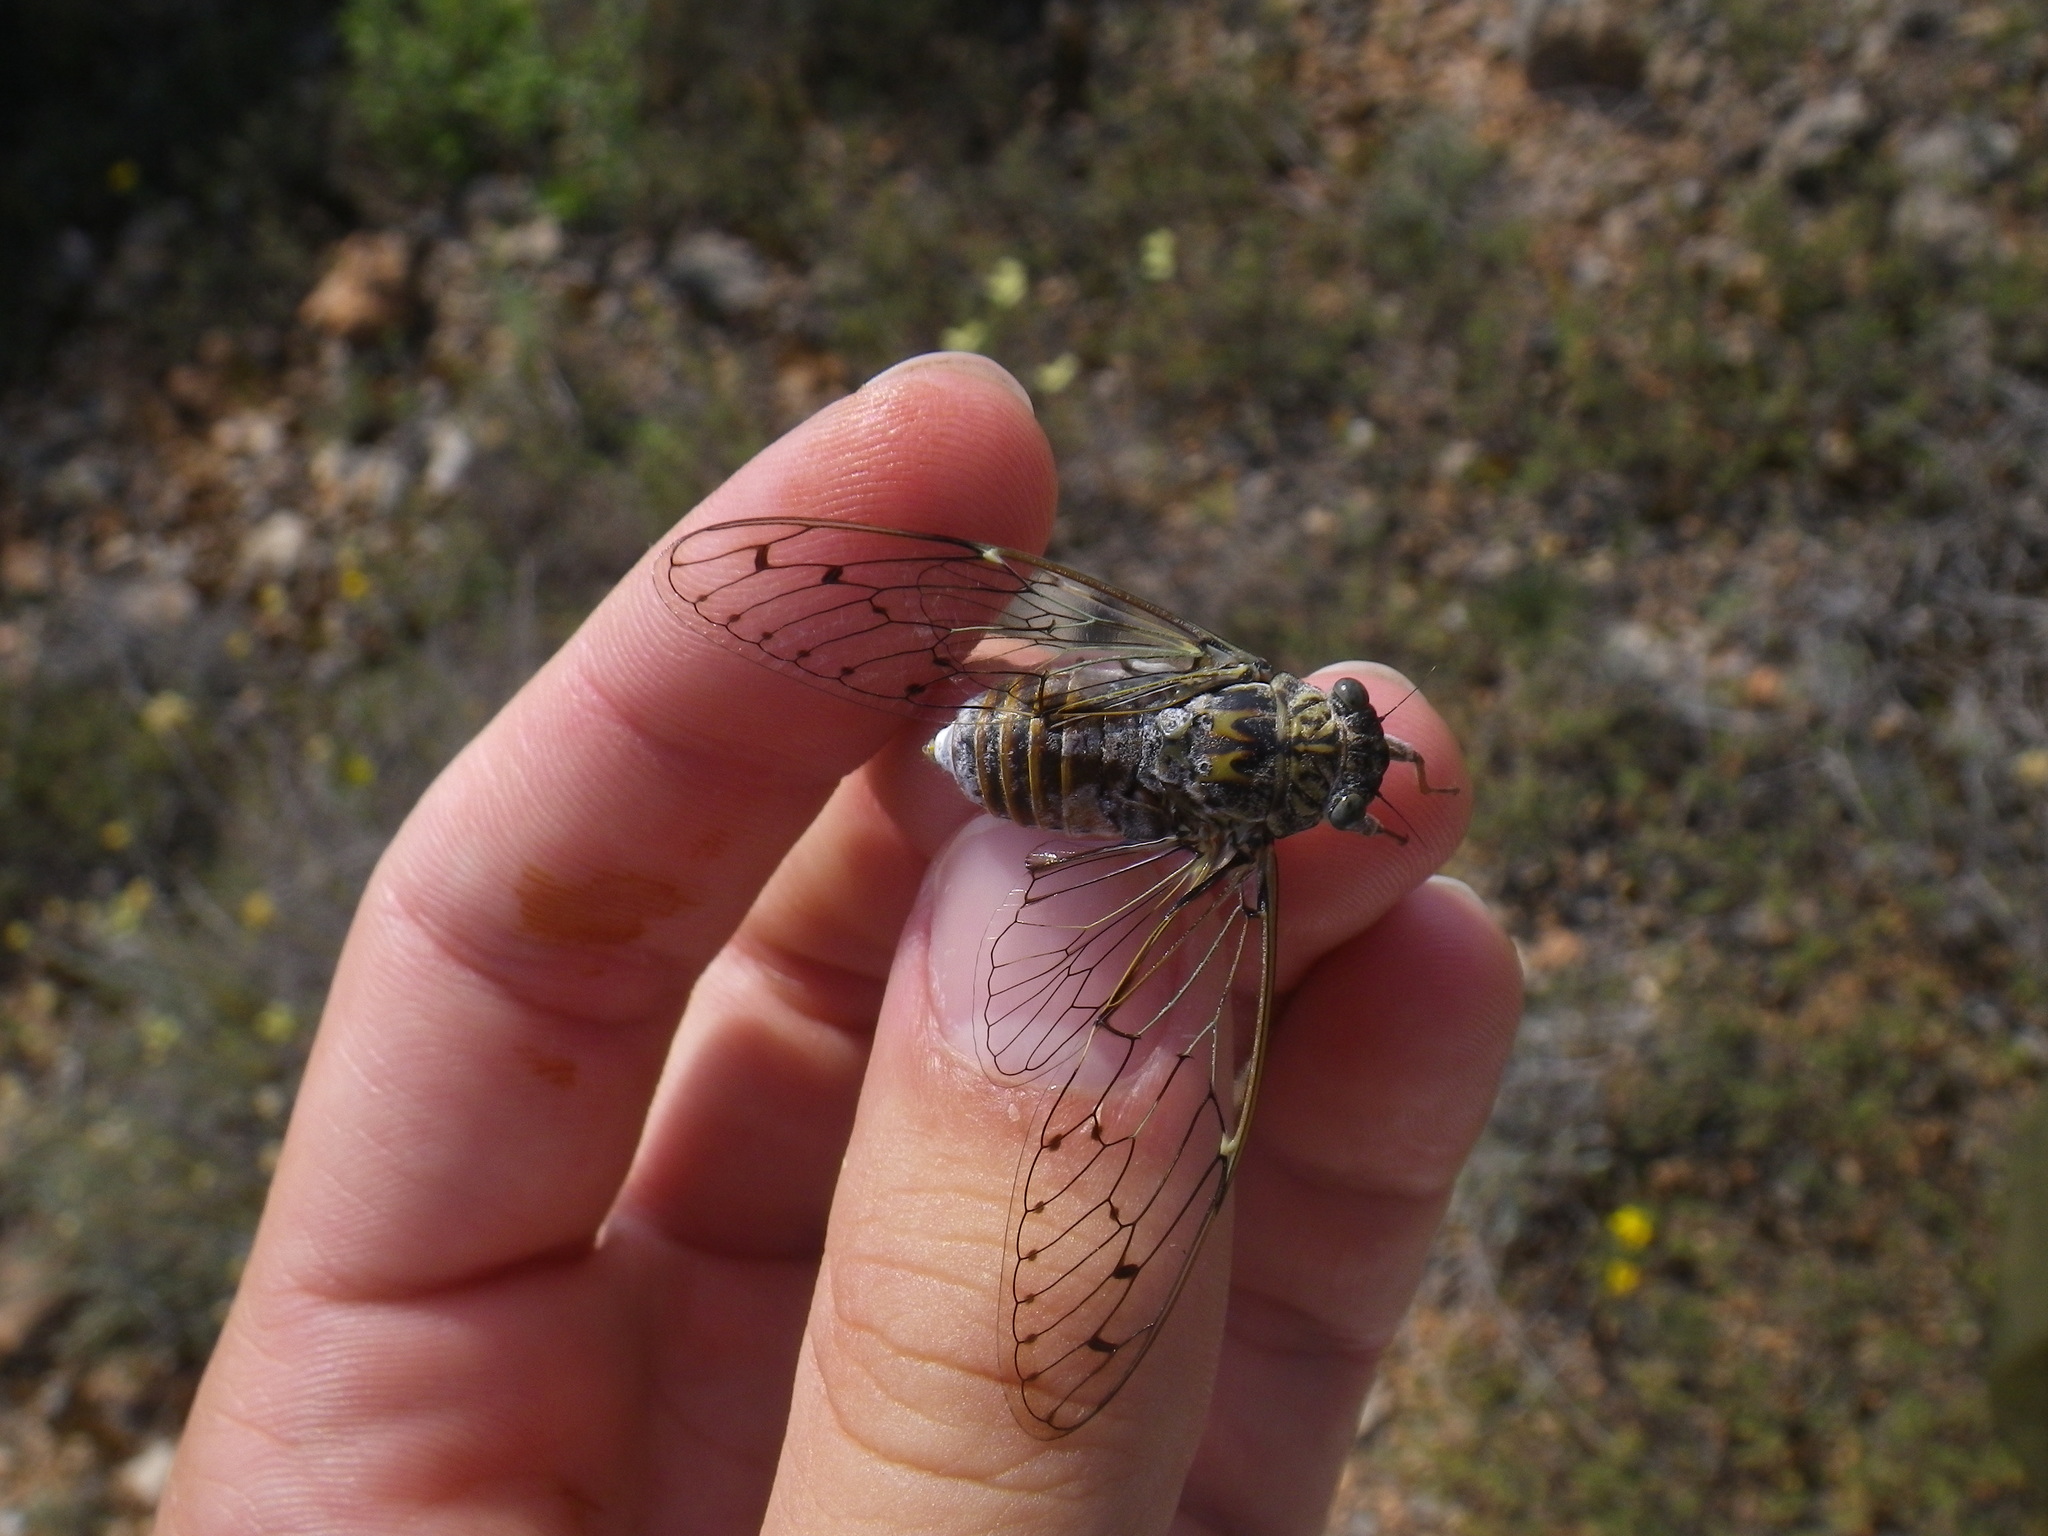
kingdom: Animalia
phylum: Arthropoda
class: Insecta
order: Hemiptera
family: Cicadidae
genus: Cicada
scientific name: Cicada orni
